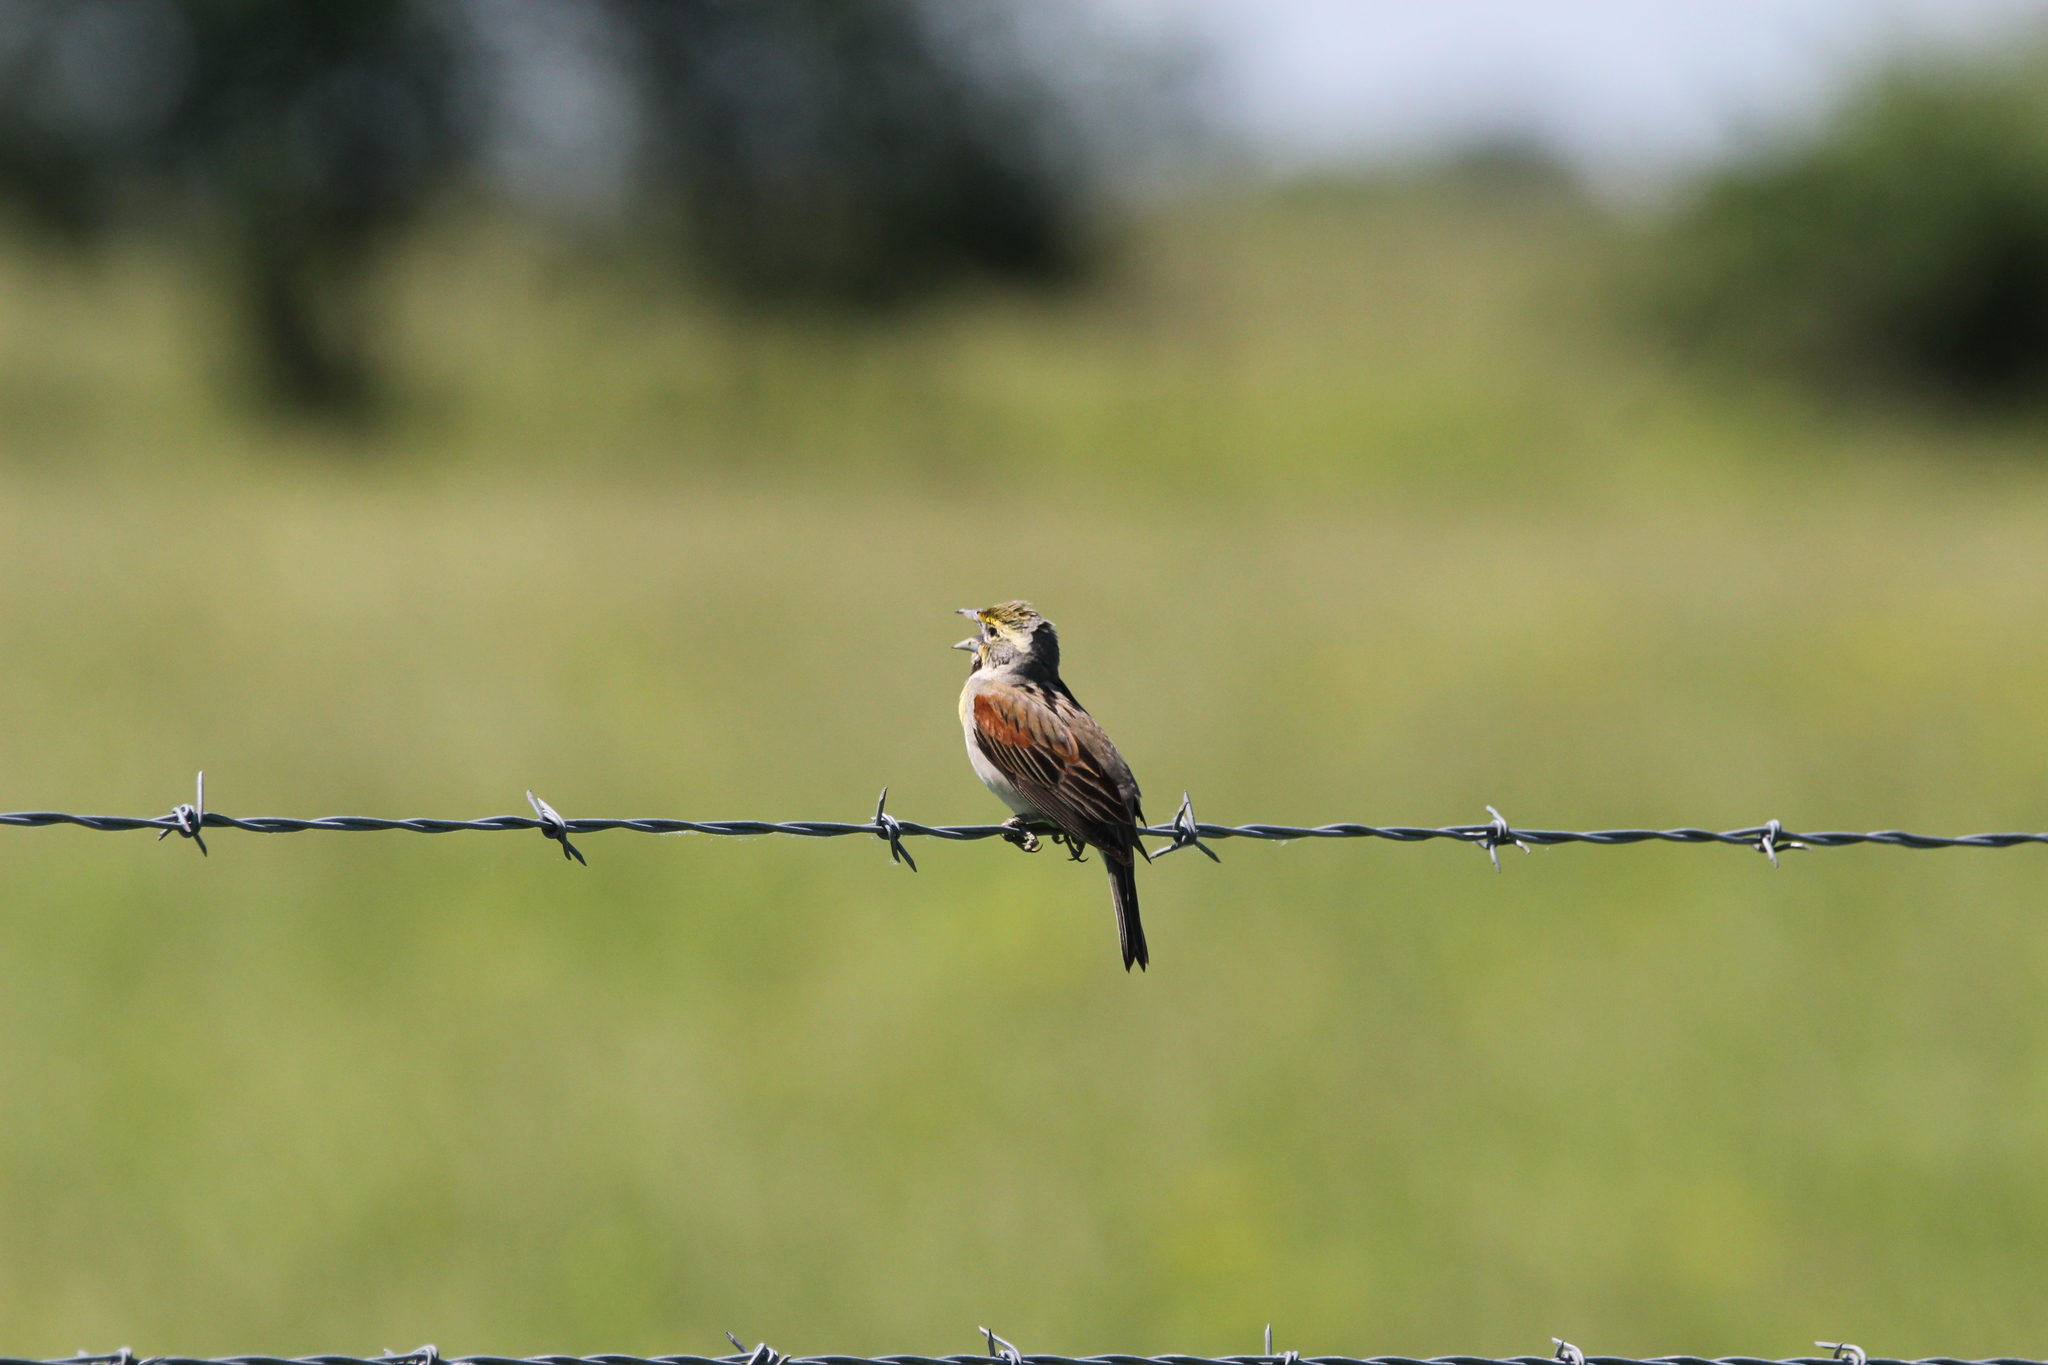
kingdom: Animalia
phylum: Chordata
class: Aves
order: Passeriformes
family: Cardinalidae
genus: Spiza
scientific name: Spiza americana
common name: Dickcissel
